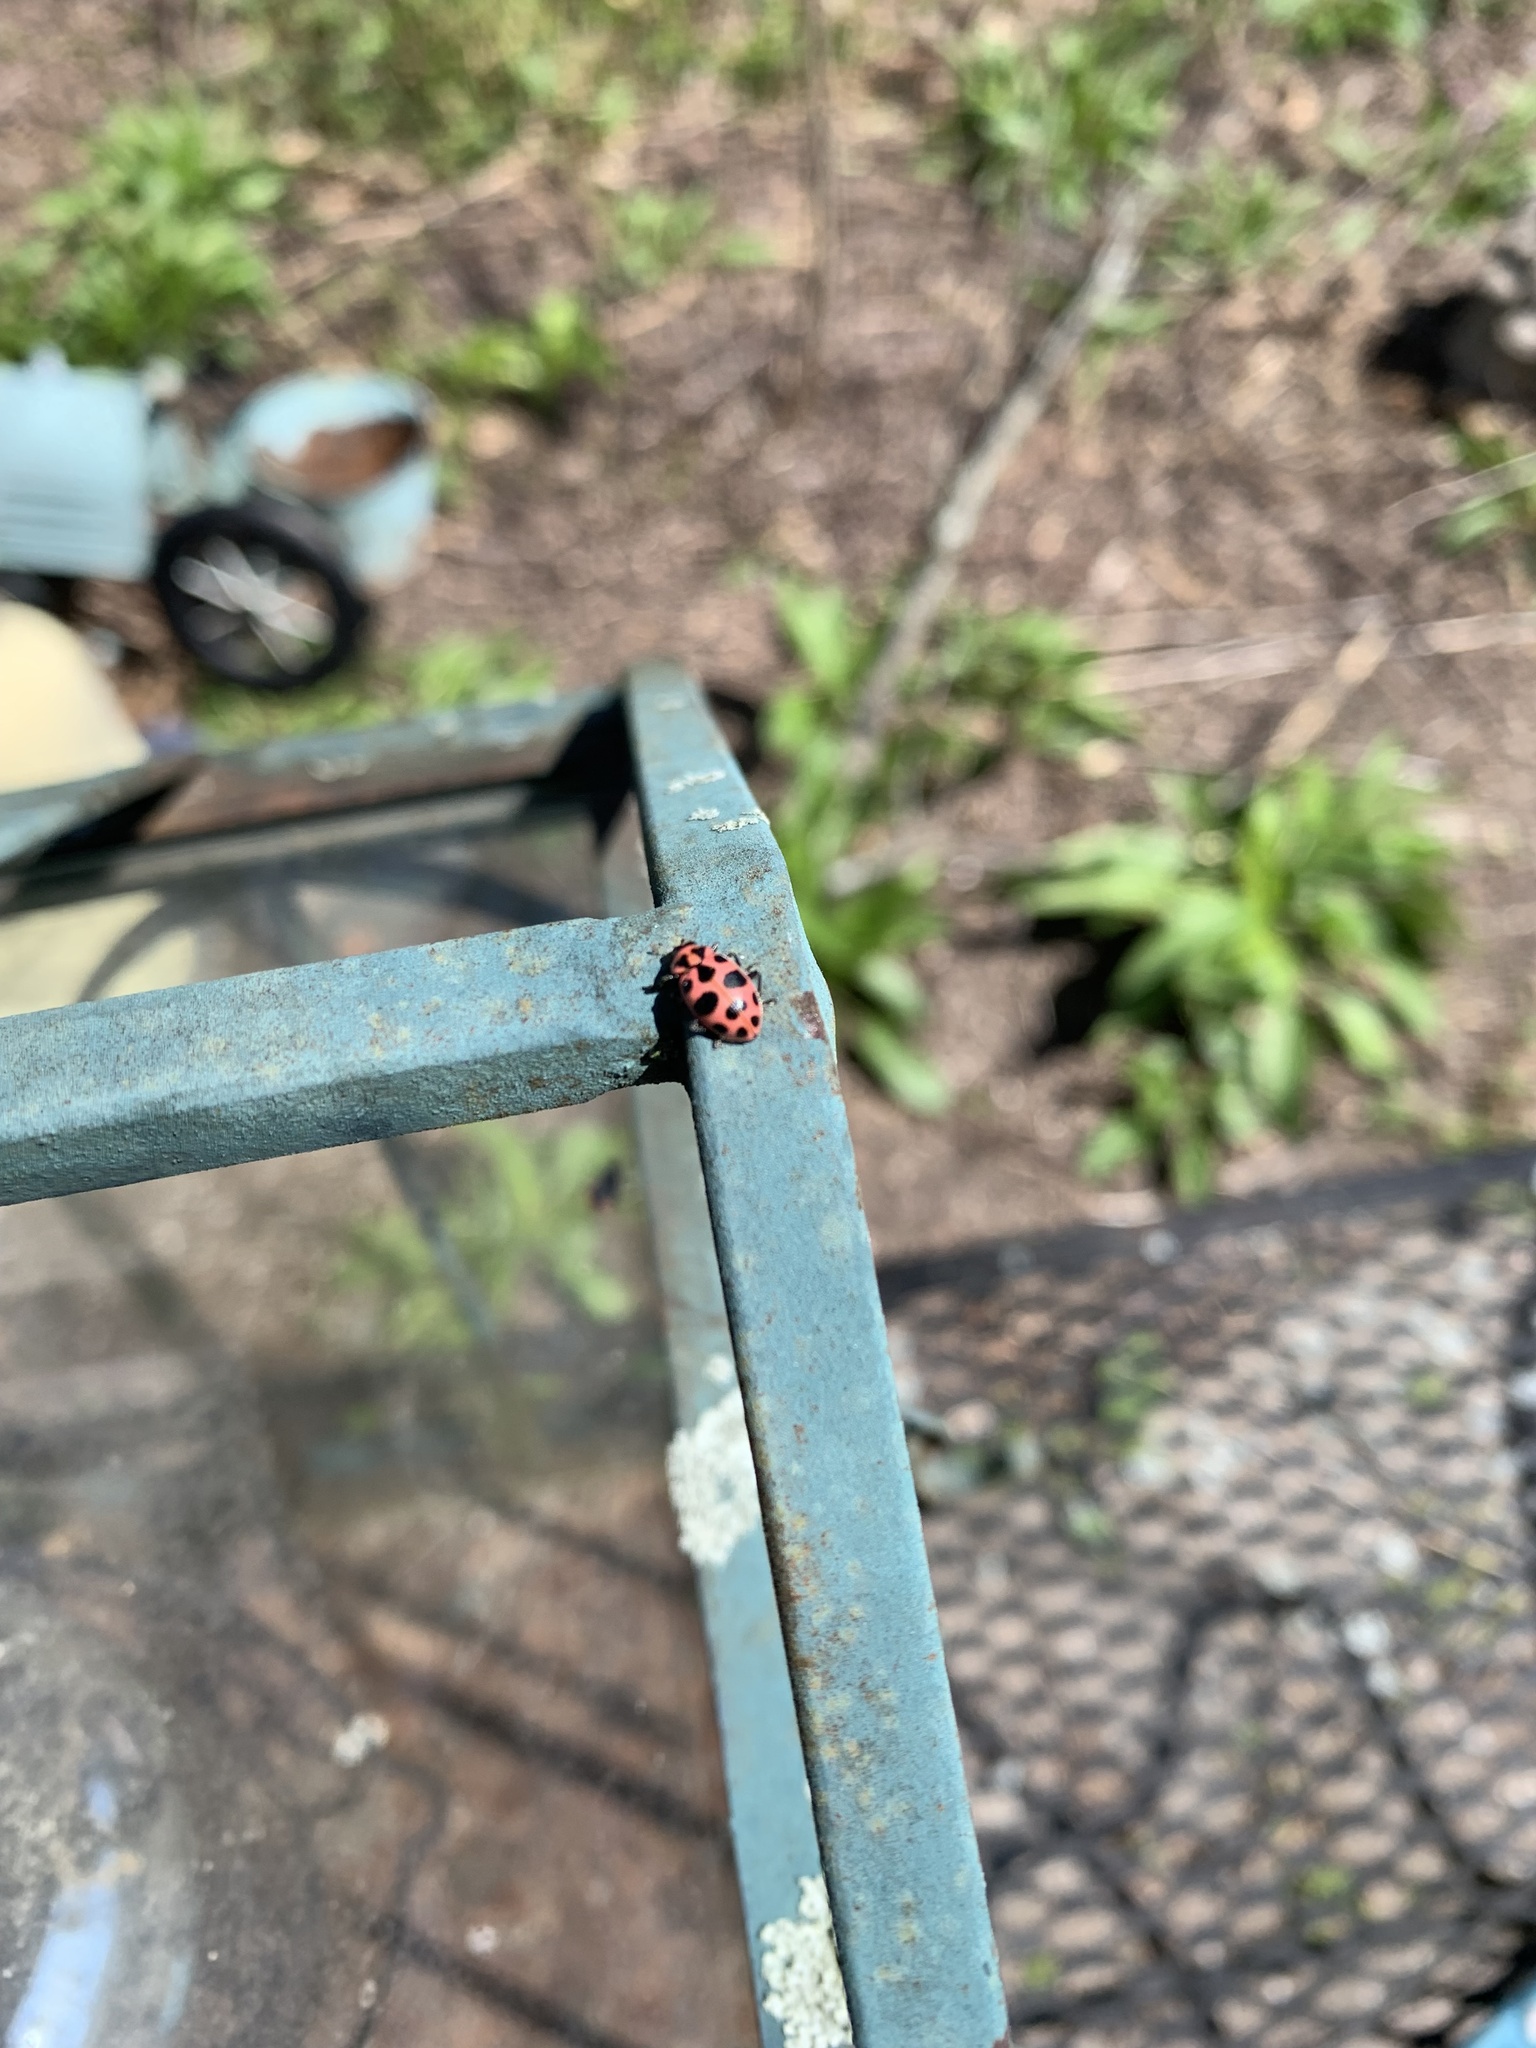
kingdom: Animalia
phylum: Arthropoda
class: Insecta
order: Coleoptera
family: Coccinellidae
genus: Coleomegilla
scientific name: Coleomegilla maculata
